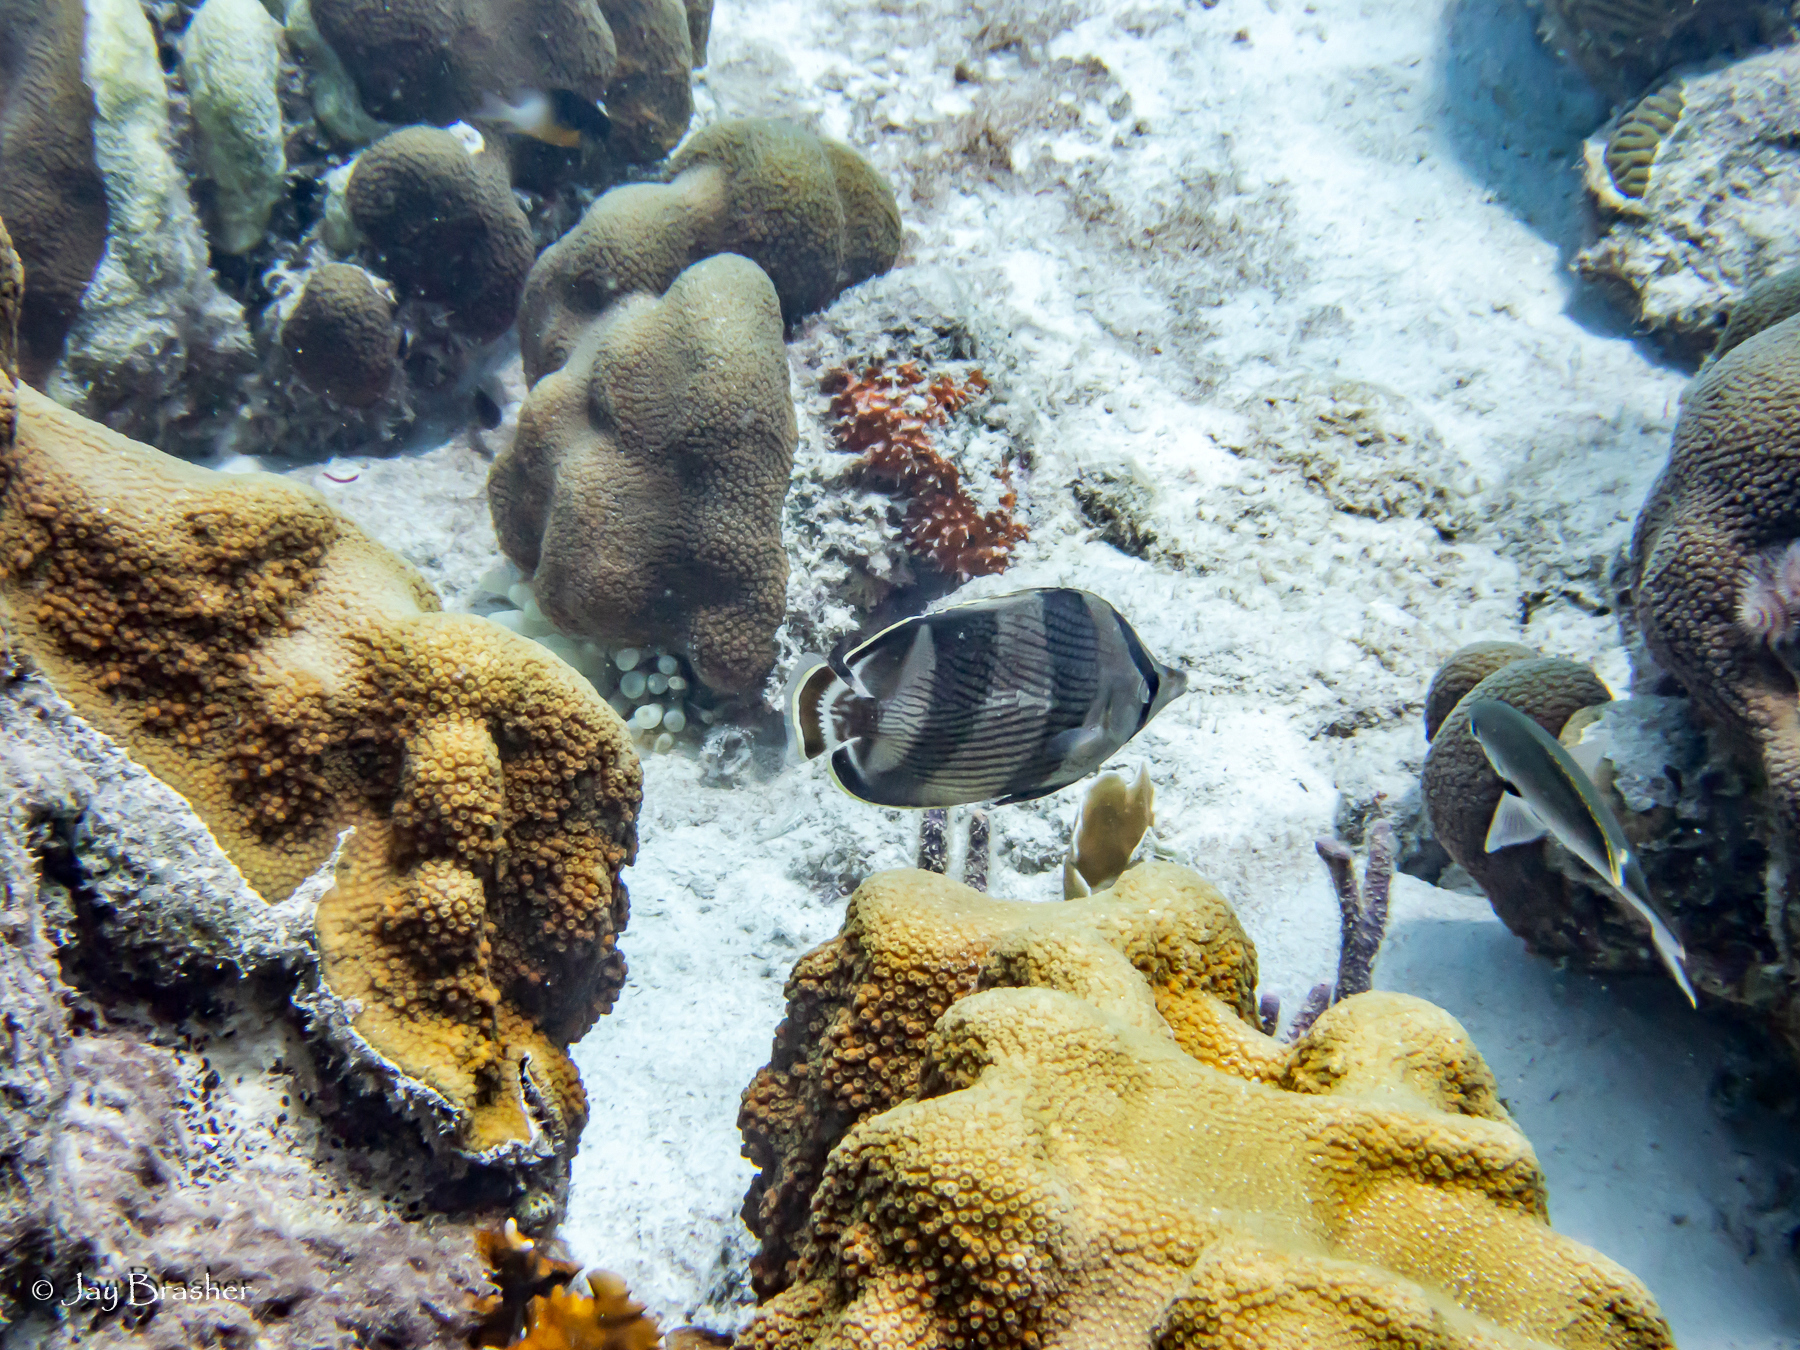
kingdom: Animalia
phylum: Chordata
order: Perciformes
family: Pomacentridae
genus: Chromis
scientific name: Chromis multilineata
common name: Brown chromis
